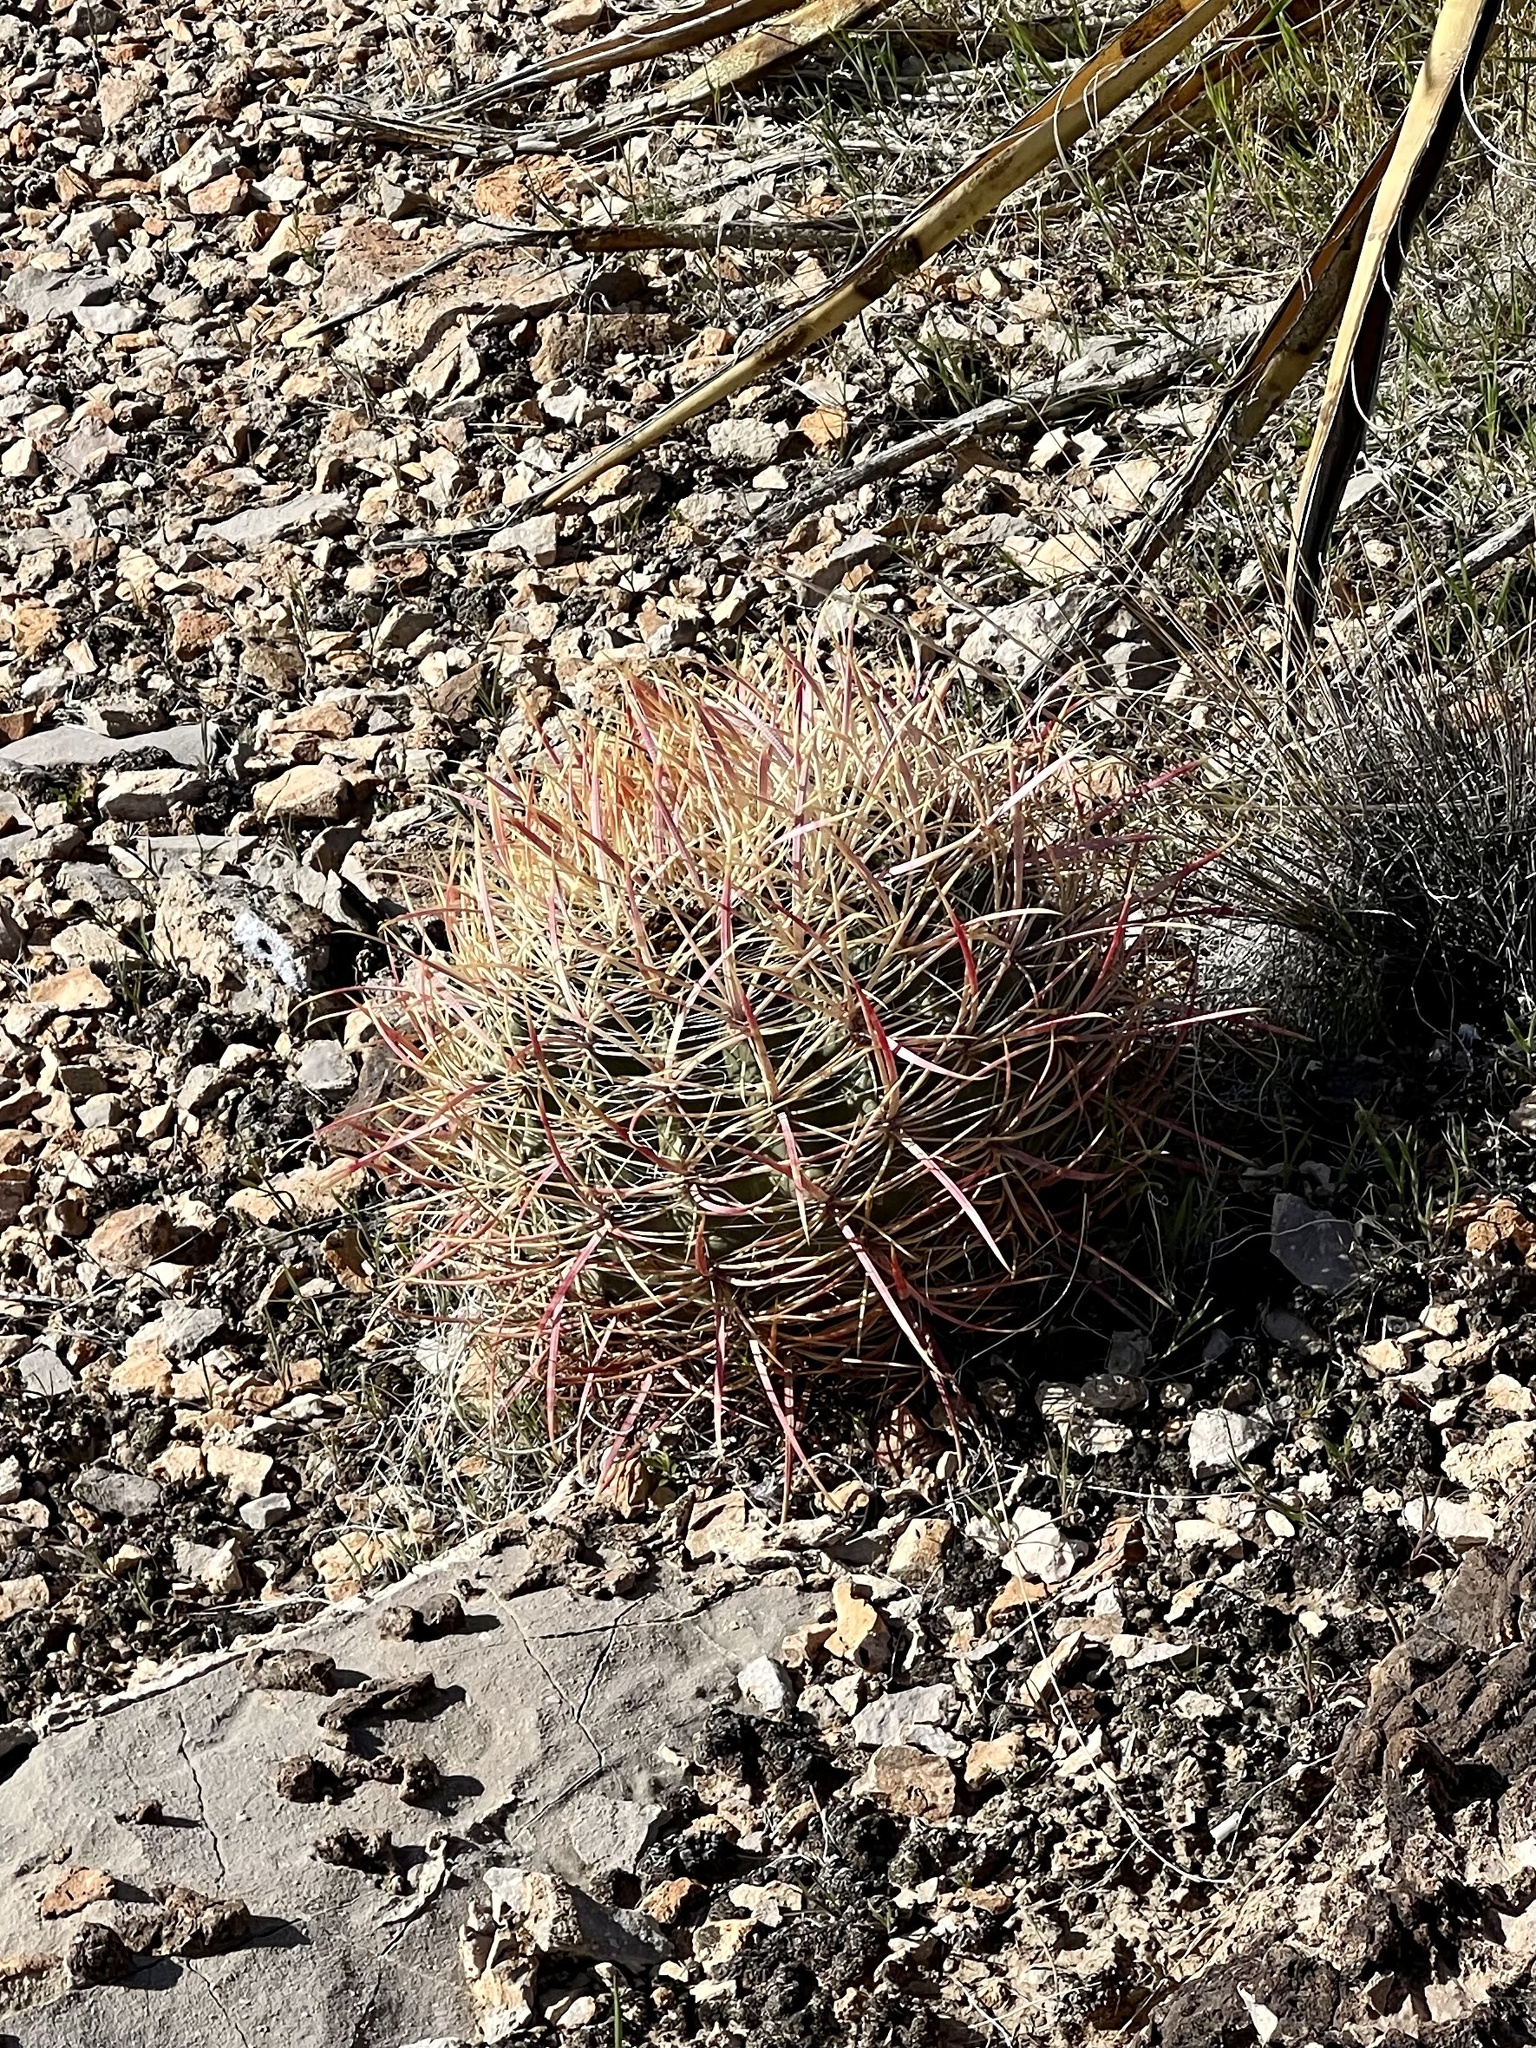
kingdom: Plantae
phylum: Tracheophyta
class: Magnoliopsida
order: Caryophyllales
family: Cactaceae
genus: Ferocactus
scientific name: Ferocactus cylindraceus
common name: California barrel cactus
